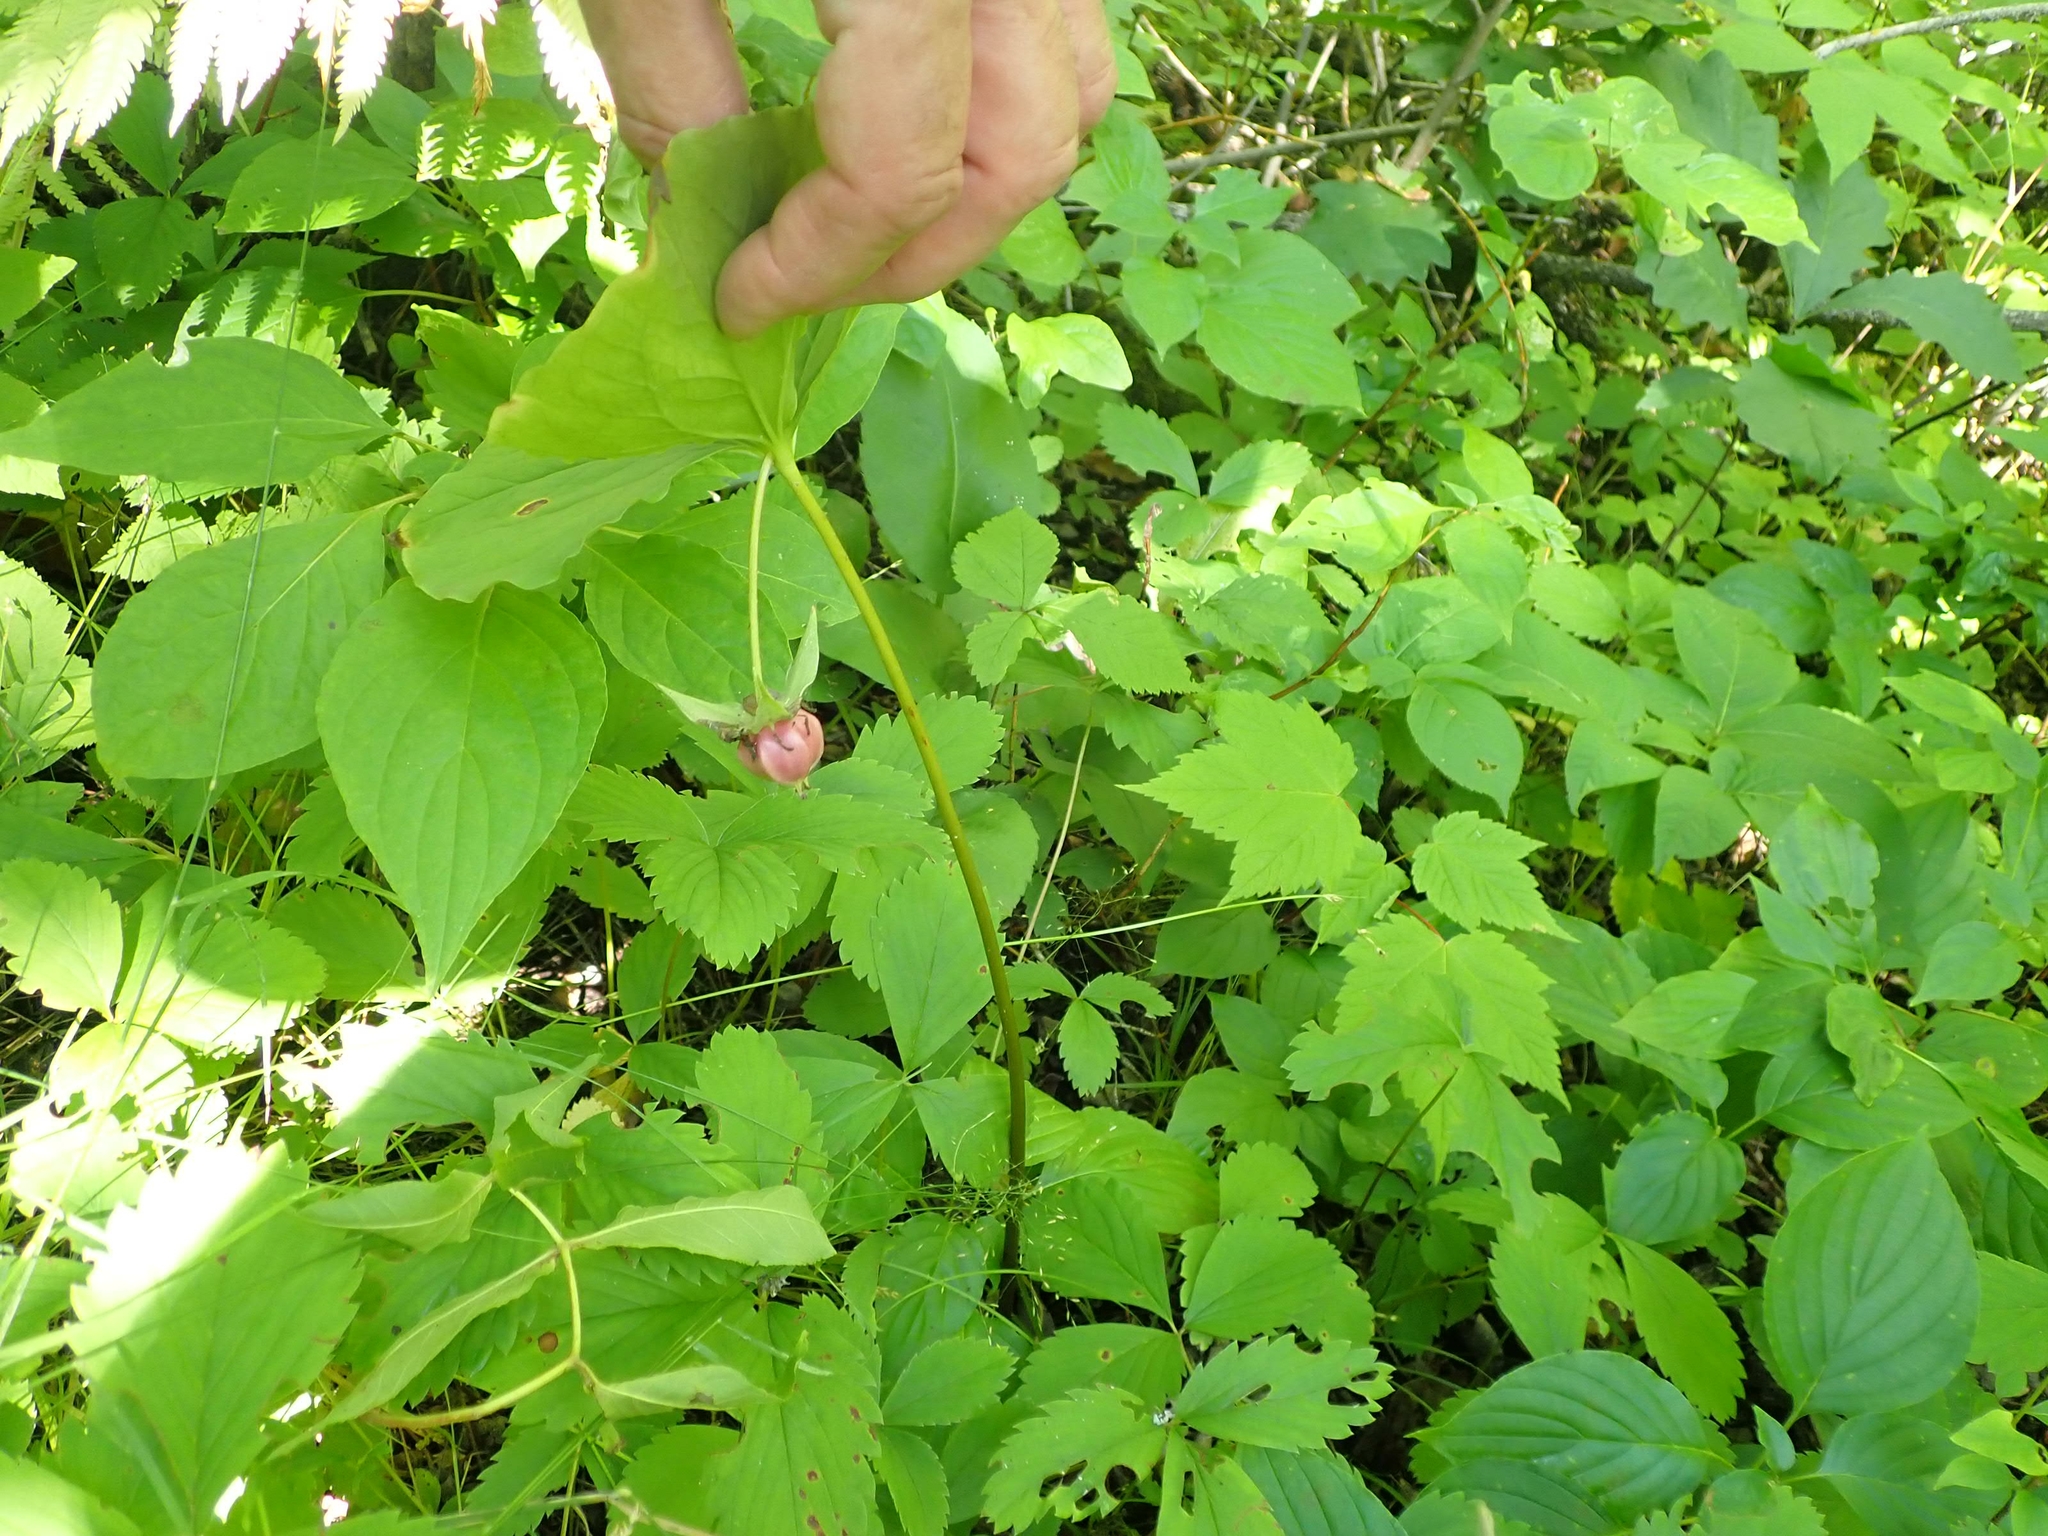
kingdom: Plantae
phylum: Tracheophyta
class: Liliopsida
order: Liliales
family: Melanthiaceae
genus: Trillium
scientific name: Trillium cernuum
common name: Nodding trillium
